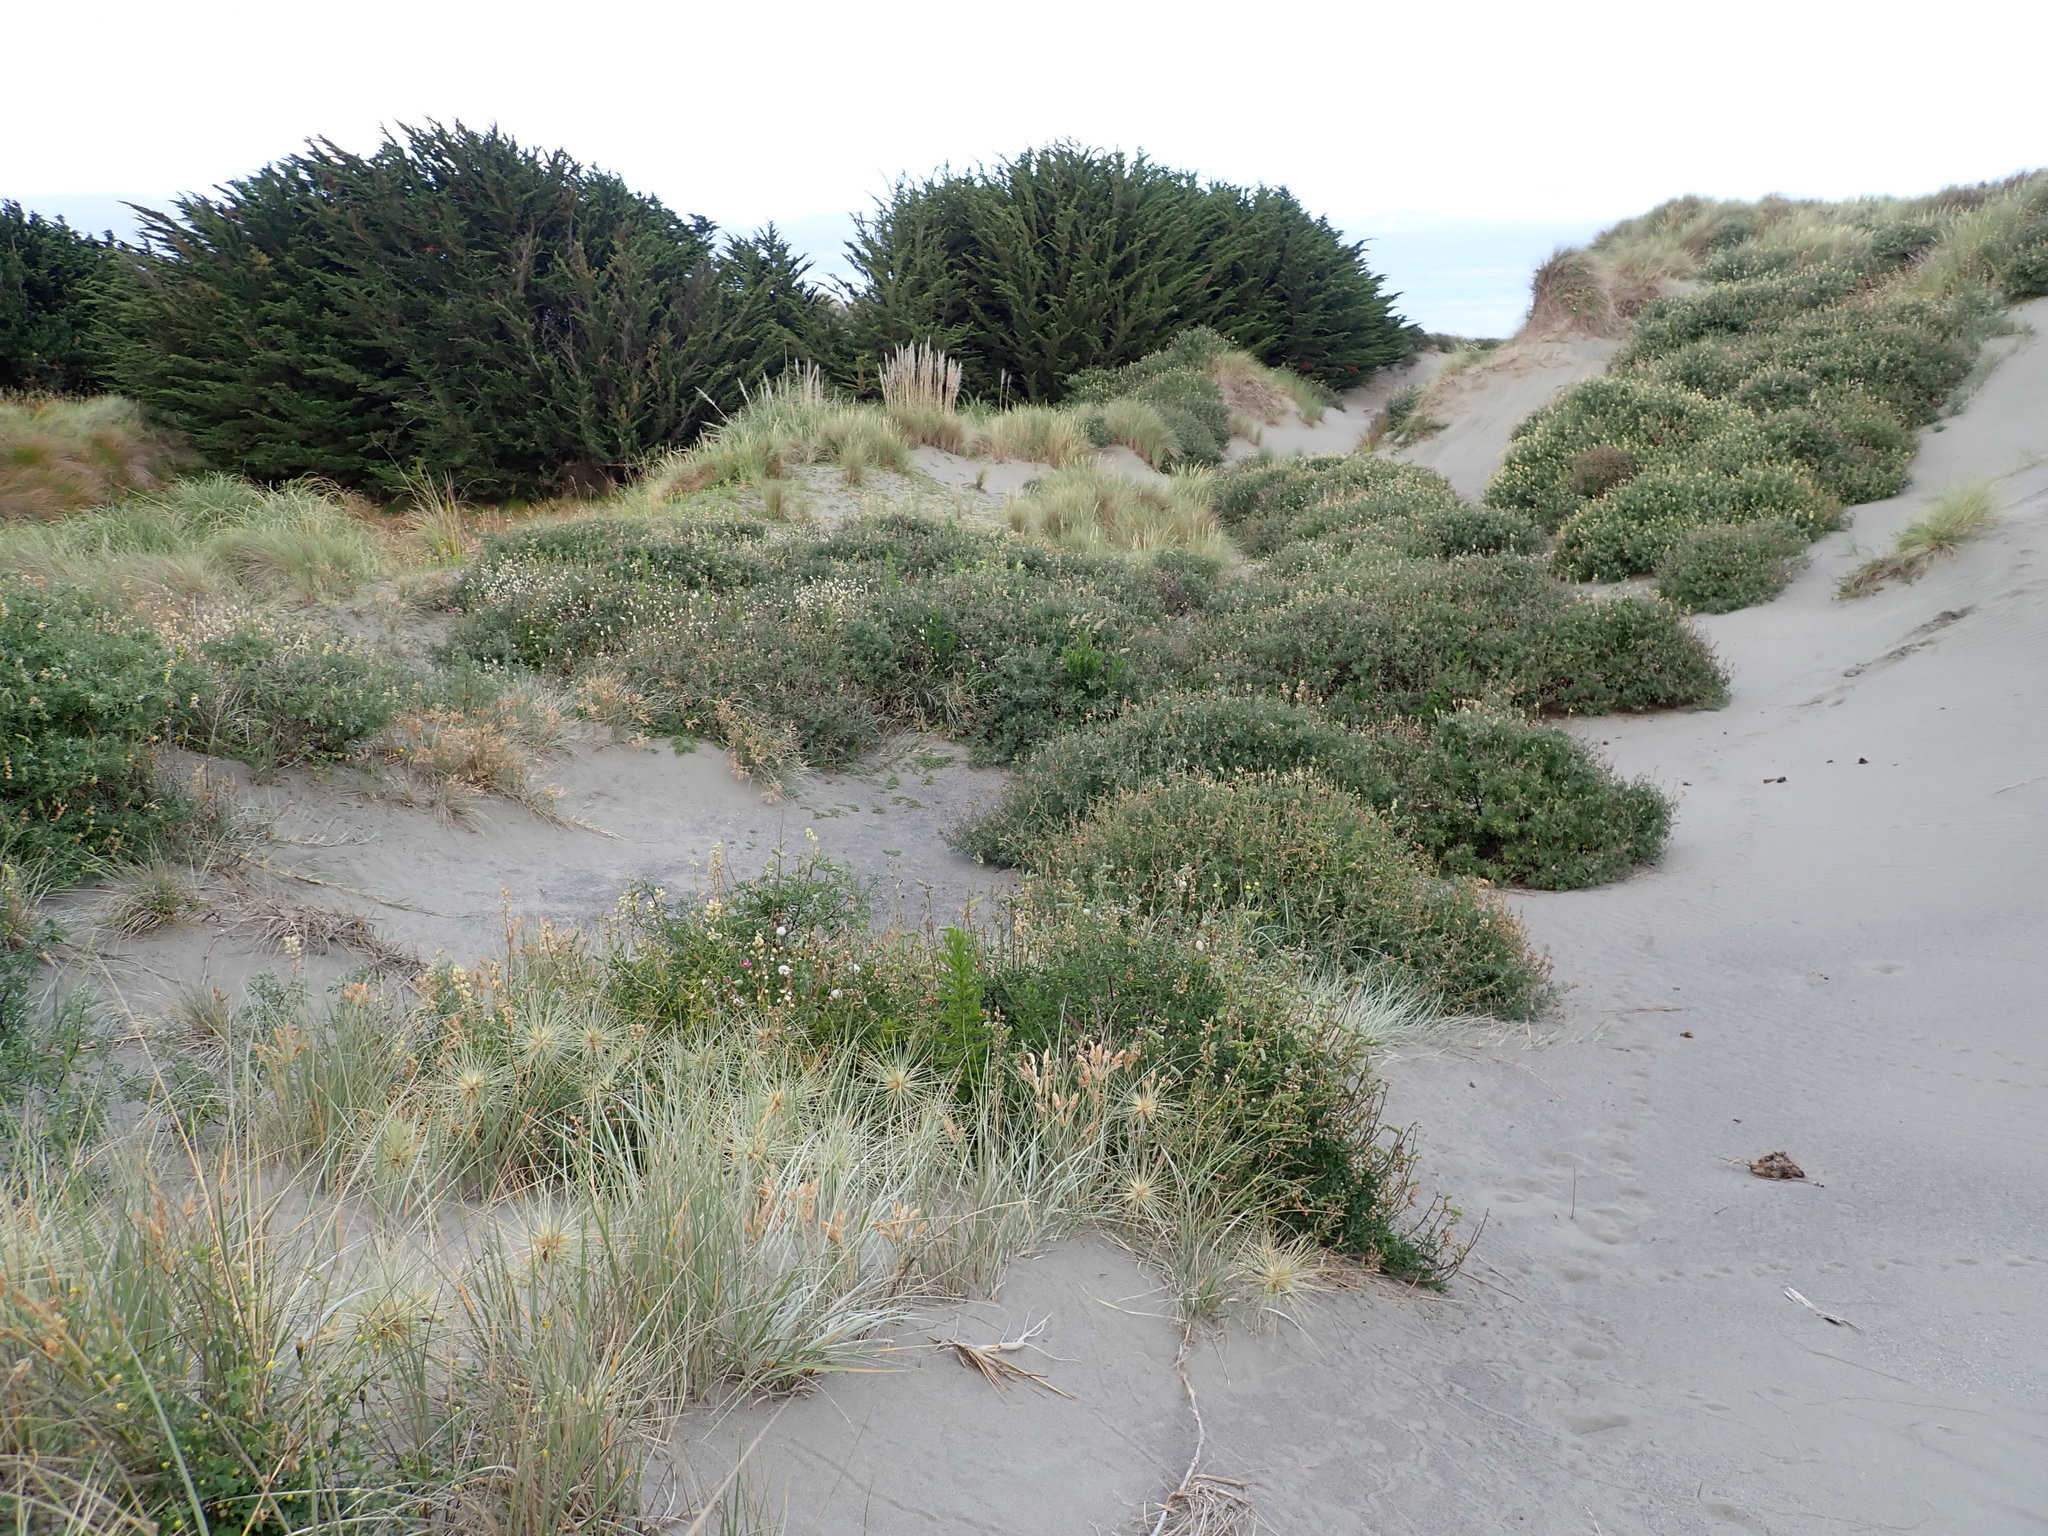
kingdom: Plantae
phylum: Tracheophyta
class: Magnoliopsida
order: Fabales
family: Fabaceae
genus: Lupinus
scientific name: Lupinus arboreus
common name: Yellow bush lupine
